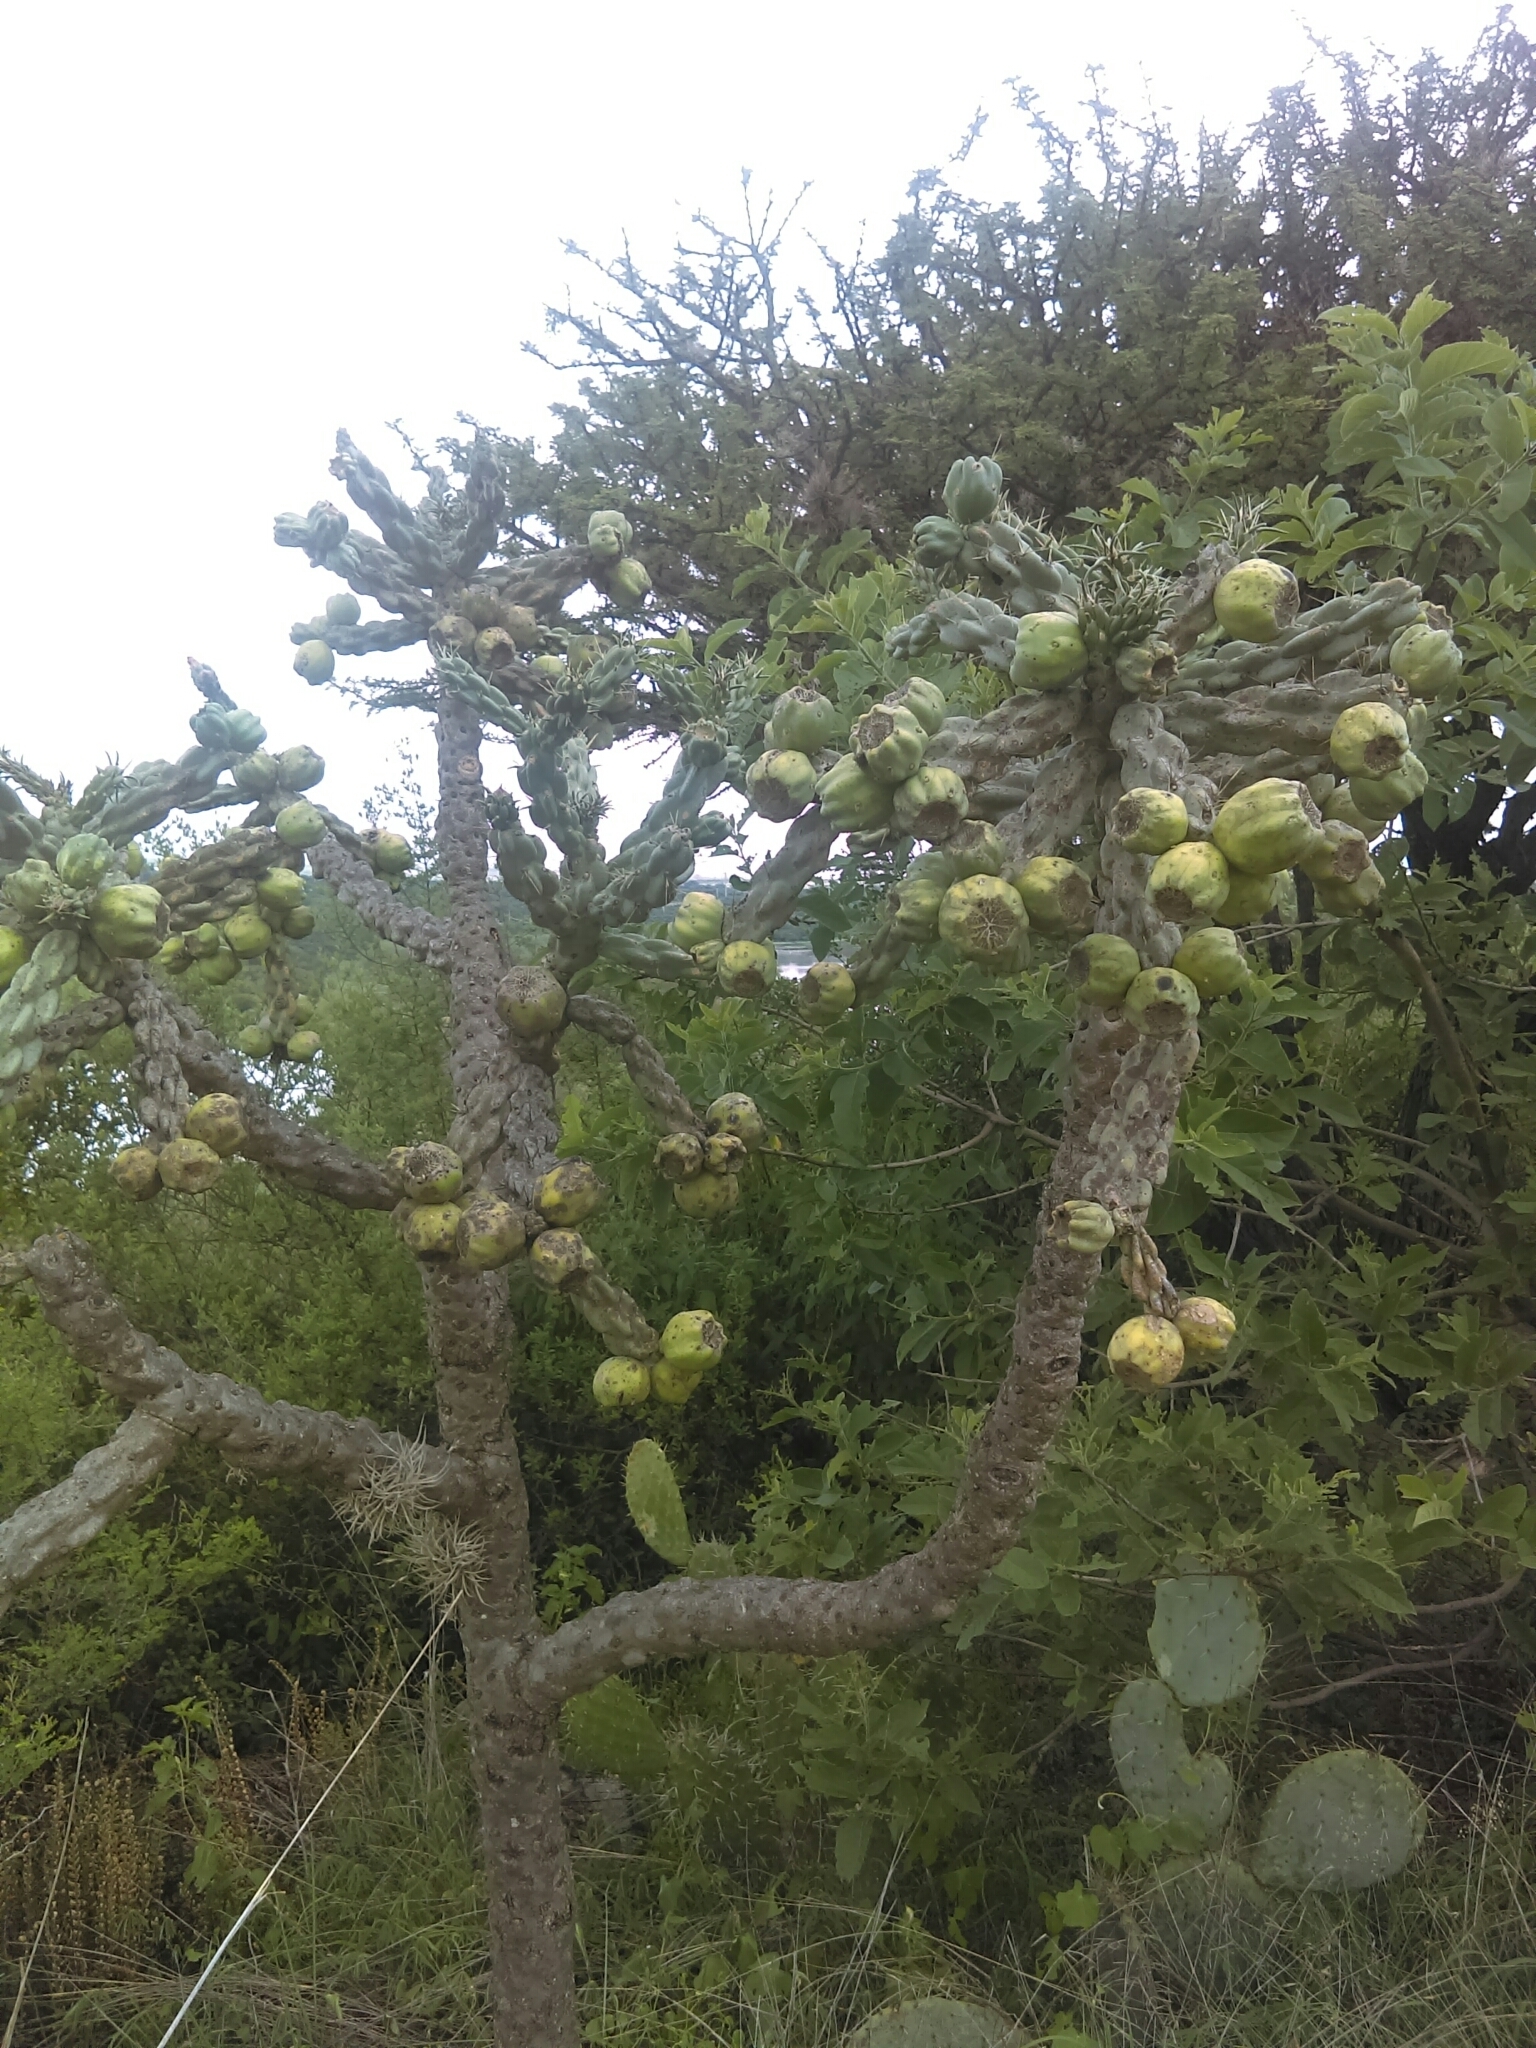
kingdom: Plantae
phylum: Tracheophyta
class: Magnoliopsida
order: Caryophyllales
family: Cactaceae
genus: Cylindropuntia
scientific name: Cylindropuntia imbricata
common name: Candelabrum cactus
